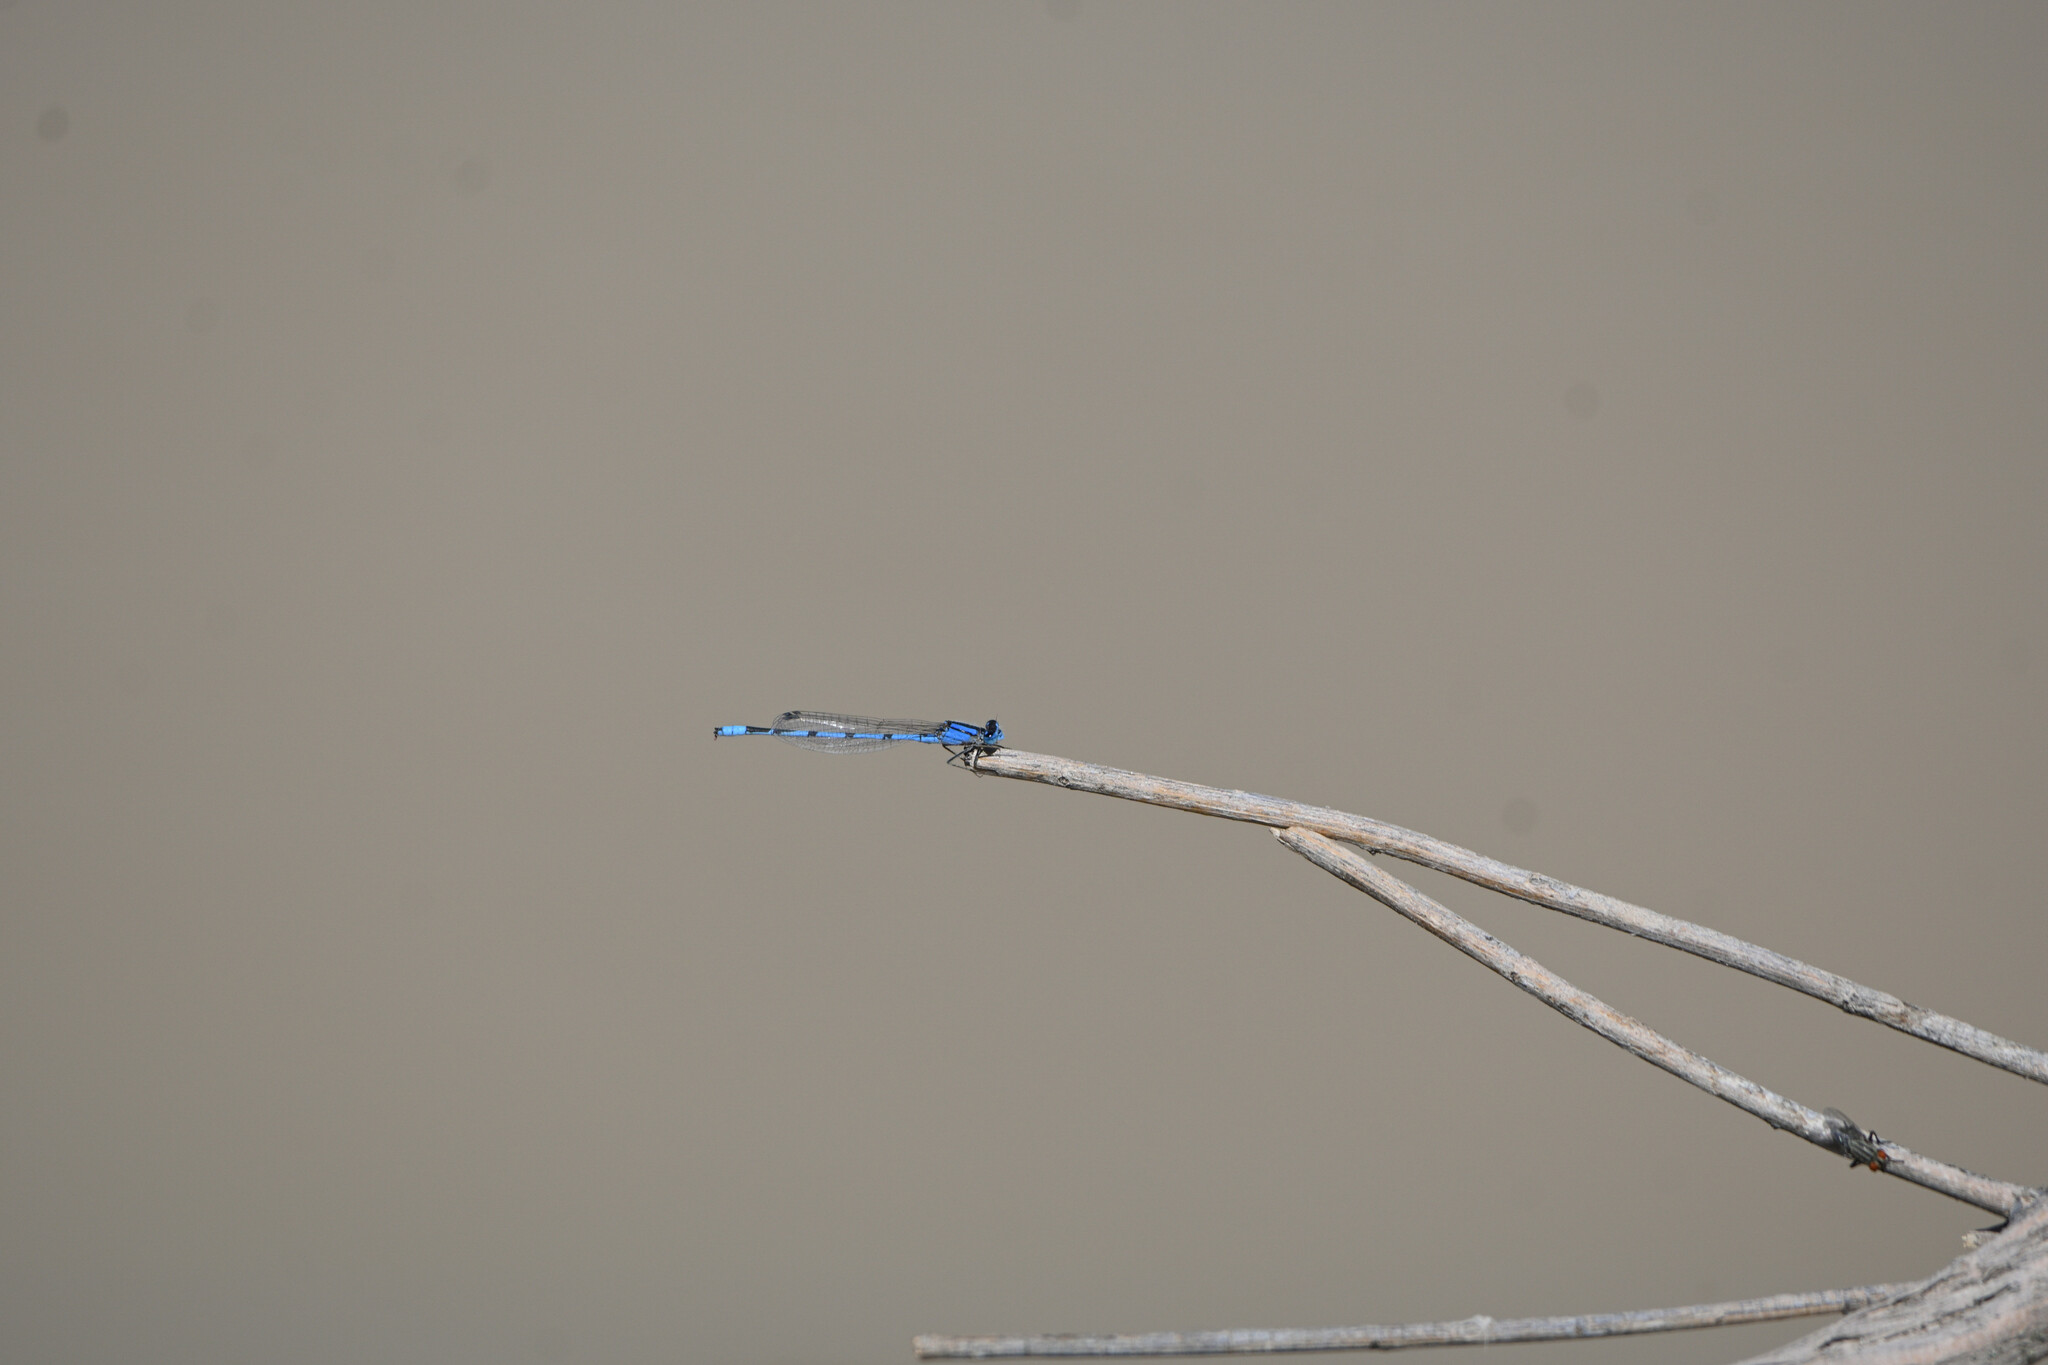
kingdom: Animalia
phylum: Arthropoda
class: Insecta
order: Odonata
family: Coenagrionidae
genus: Enallagma
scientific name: Enallagma civile
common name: Damselfly
